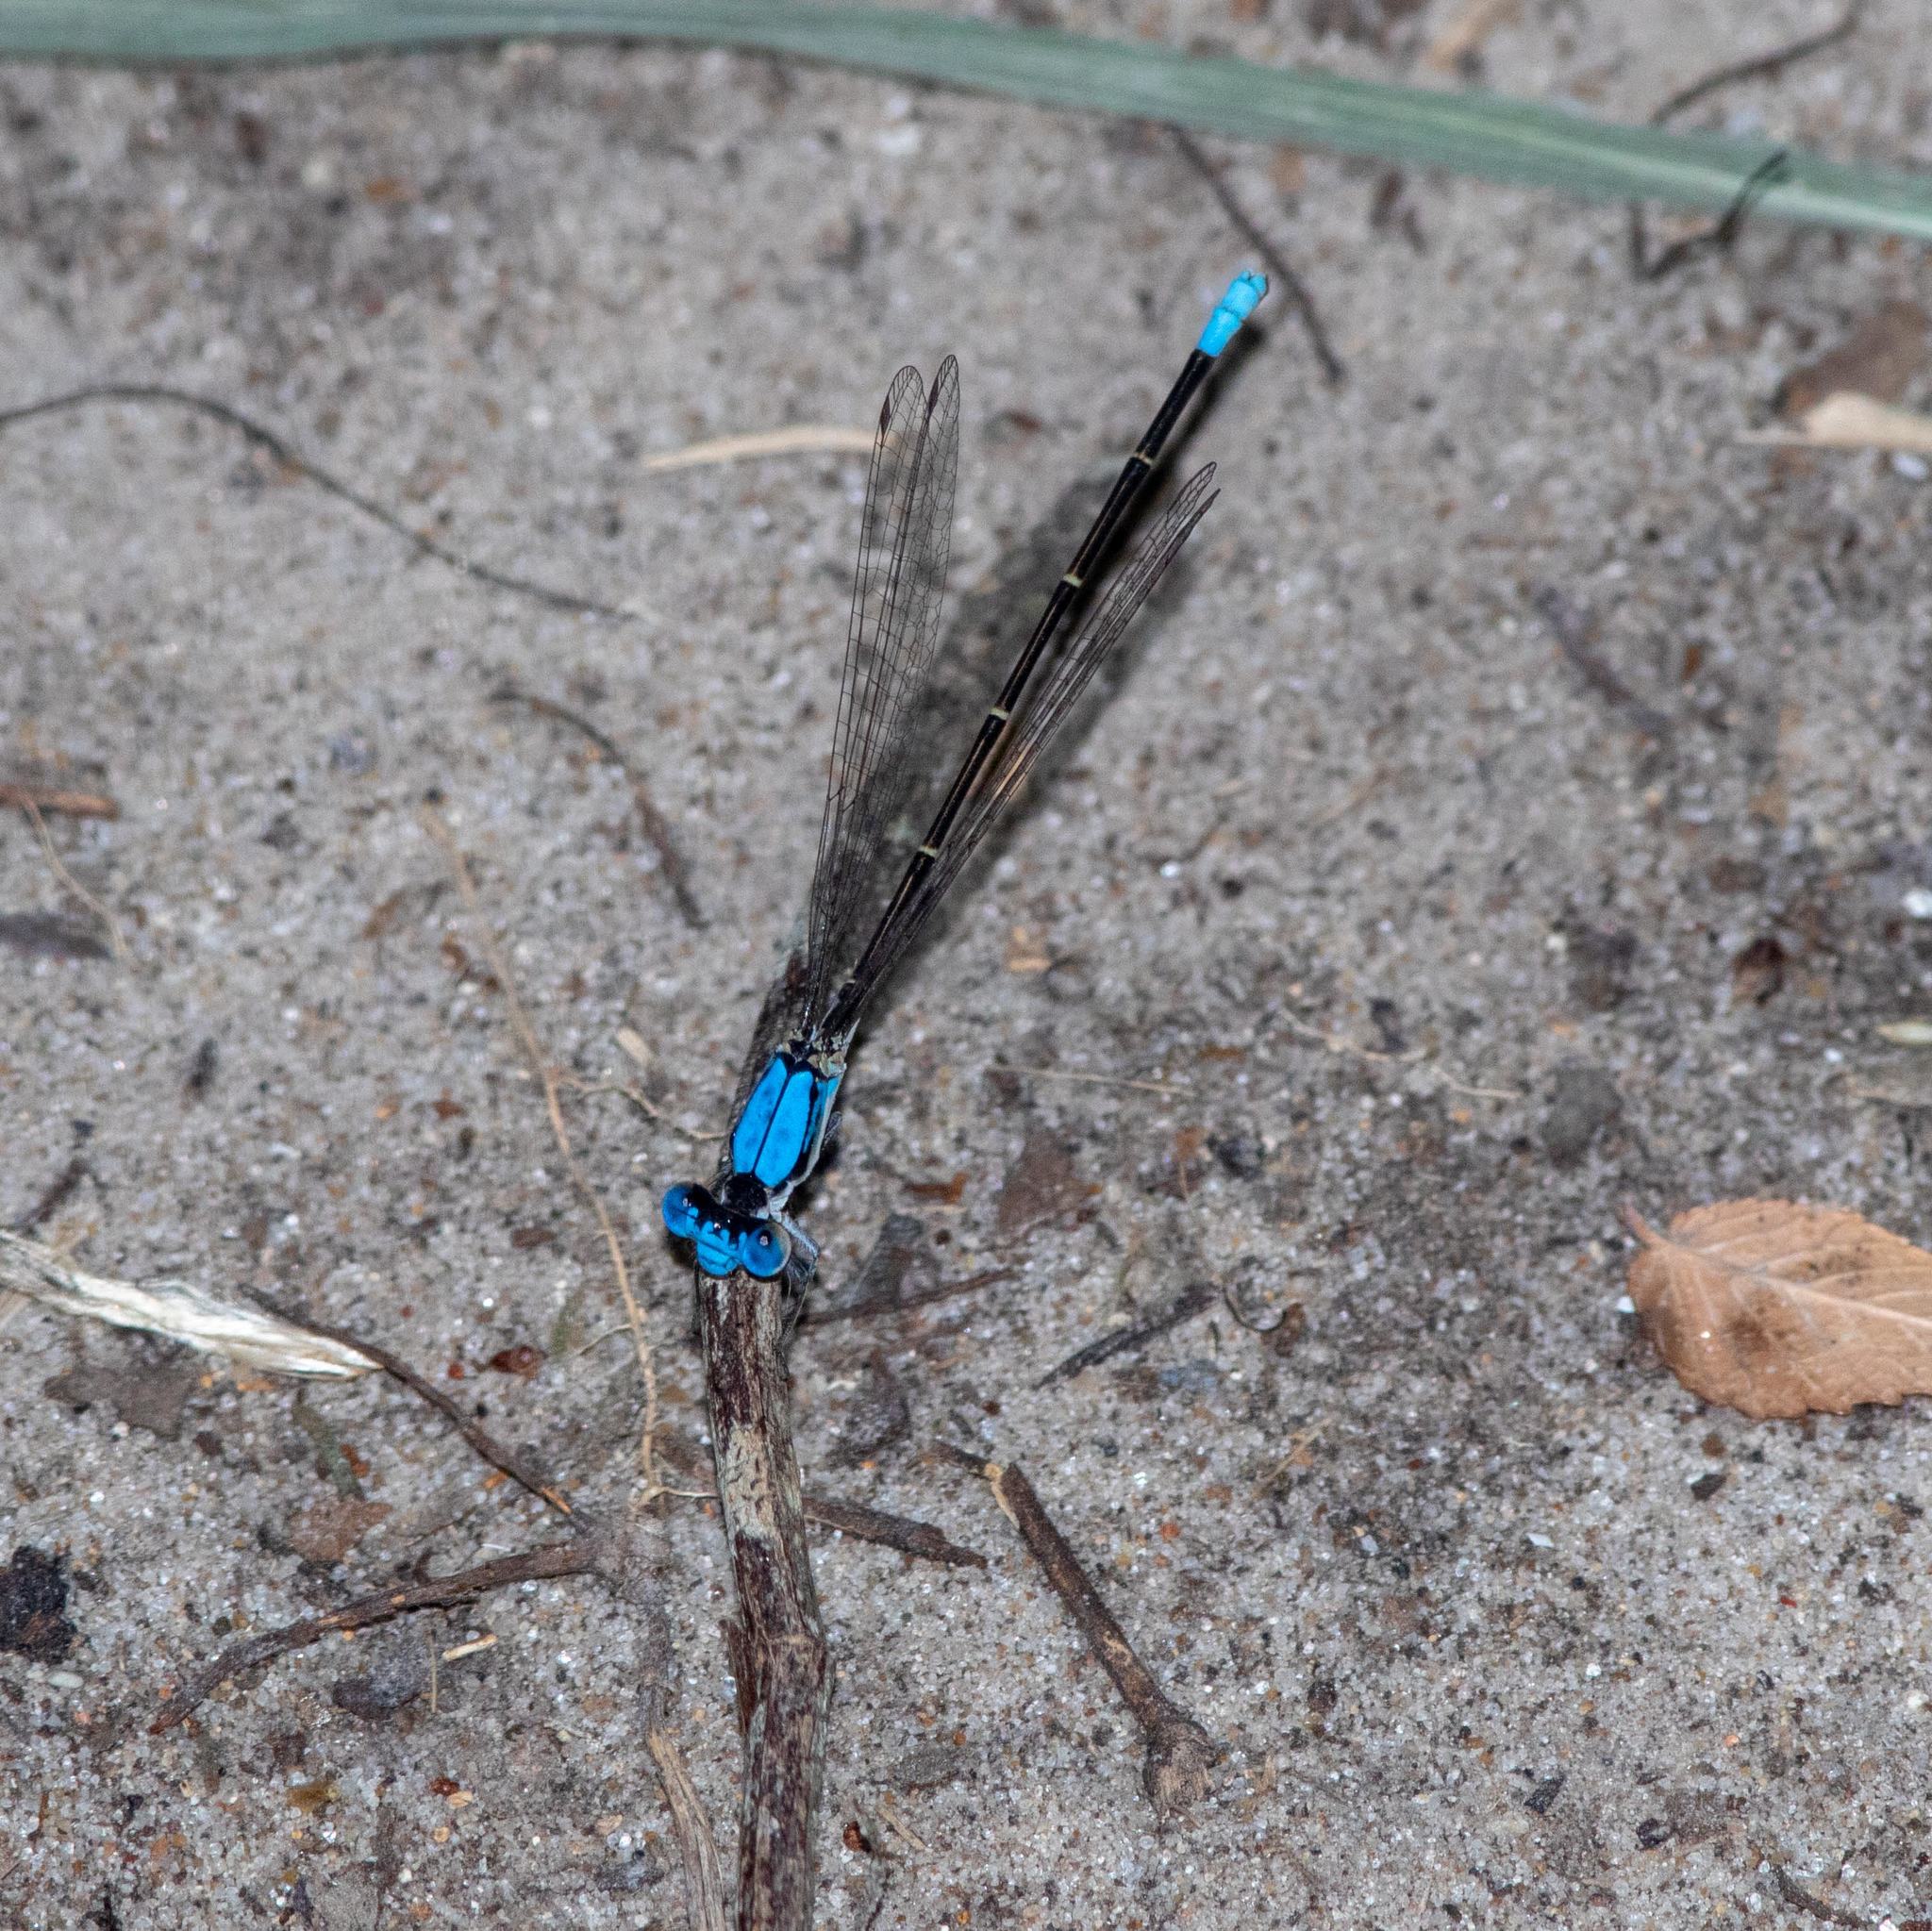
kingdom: Animalia
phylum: Arthropoda
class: Insecta
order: Odonata
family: Coenagrionidae
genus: Argia
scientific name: Argia apicalis
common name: Blue-fronted dancer
